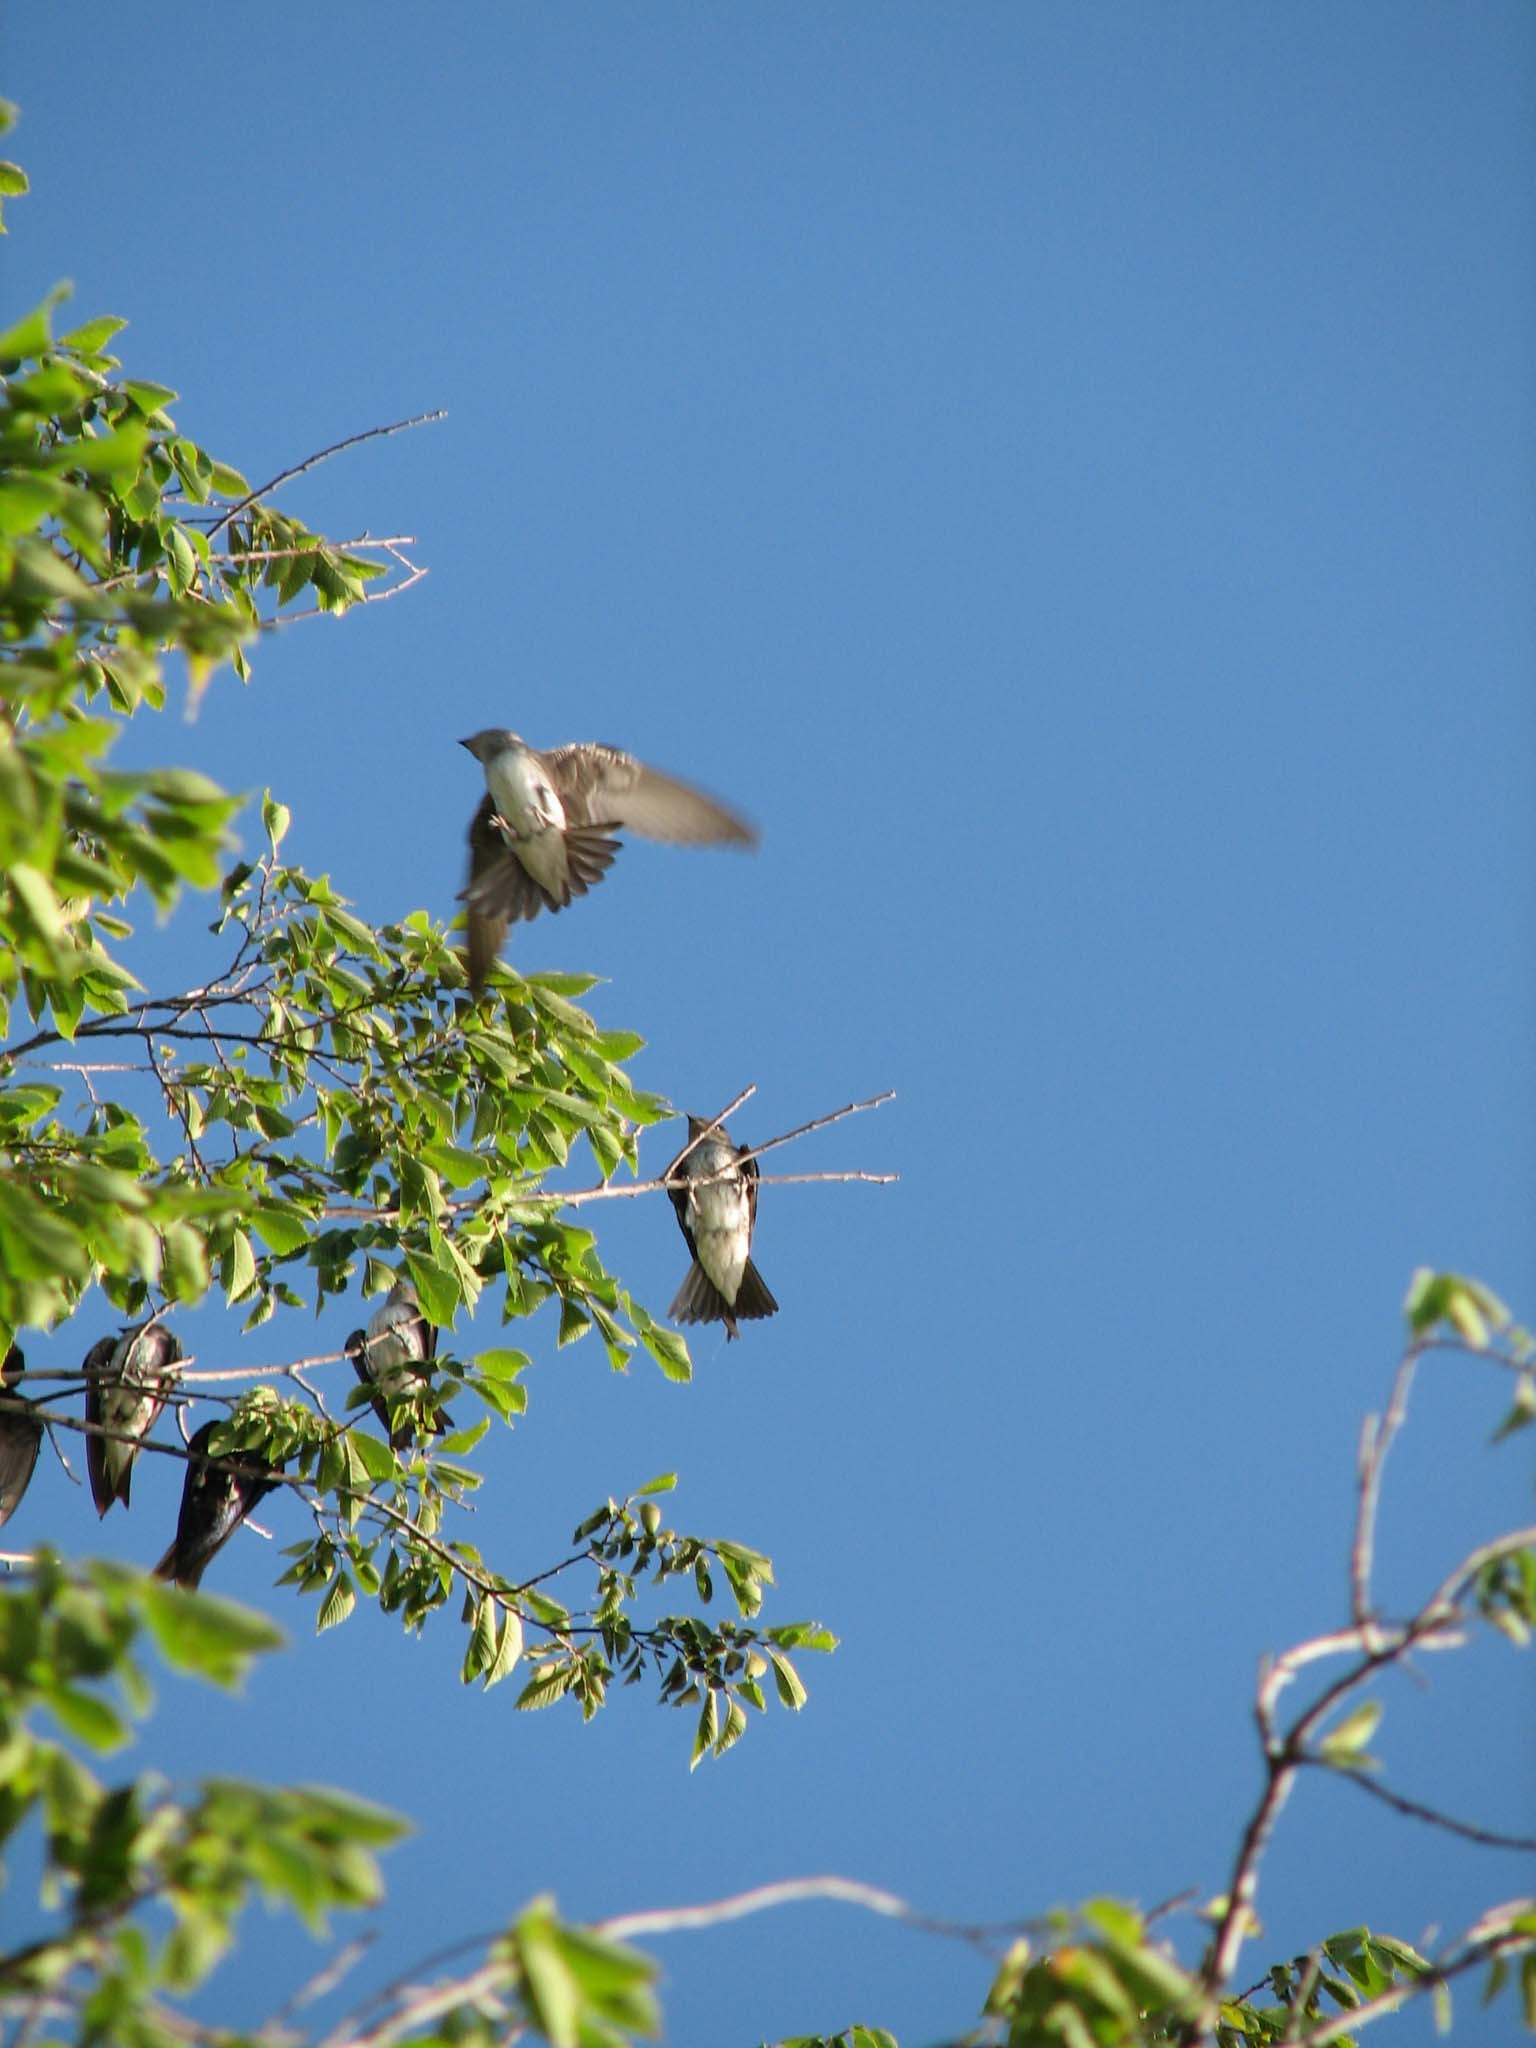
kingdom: Animalia
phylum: Chordata
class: Aves
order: Passeriformes
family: Hirundinidae
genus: Progne
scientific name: Progne subis
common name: Purple martin
